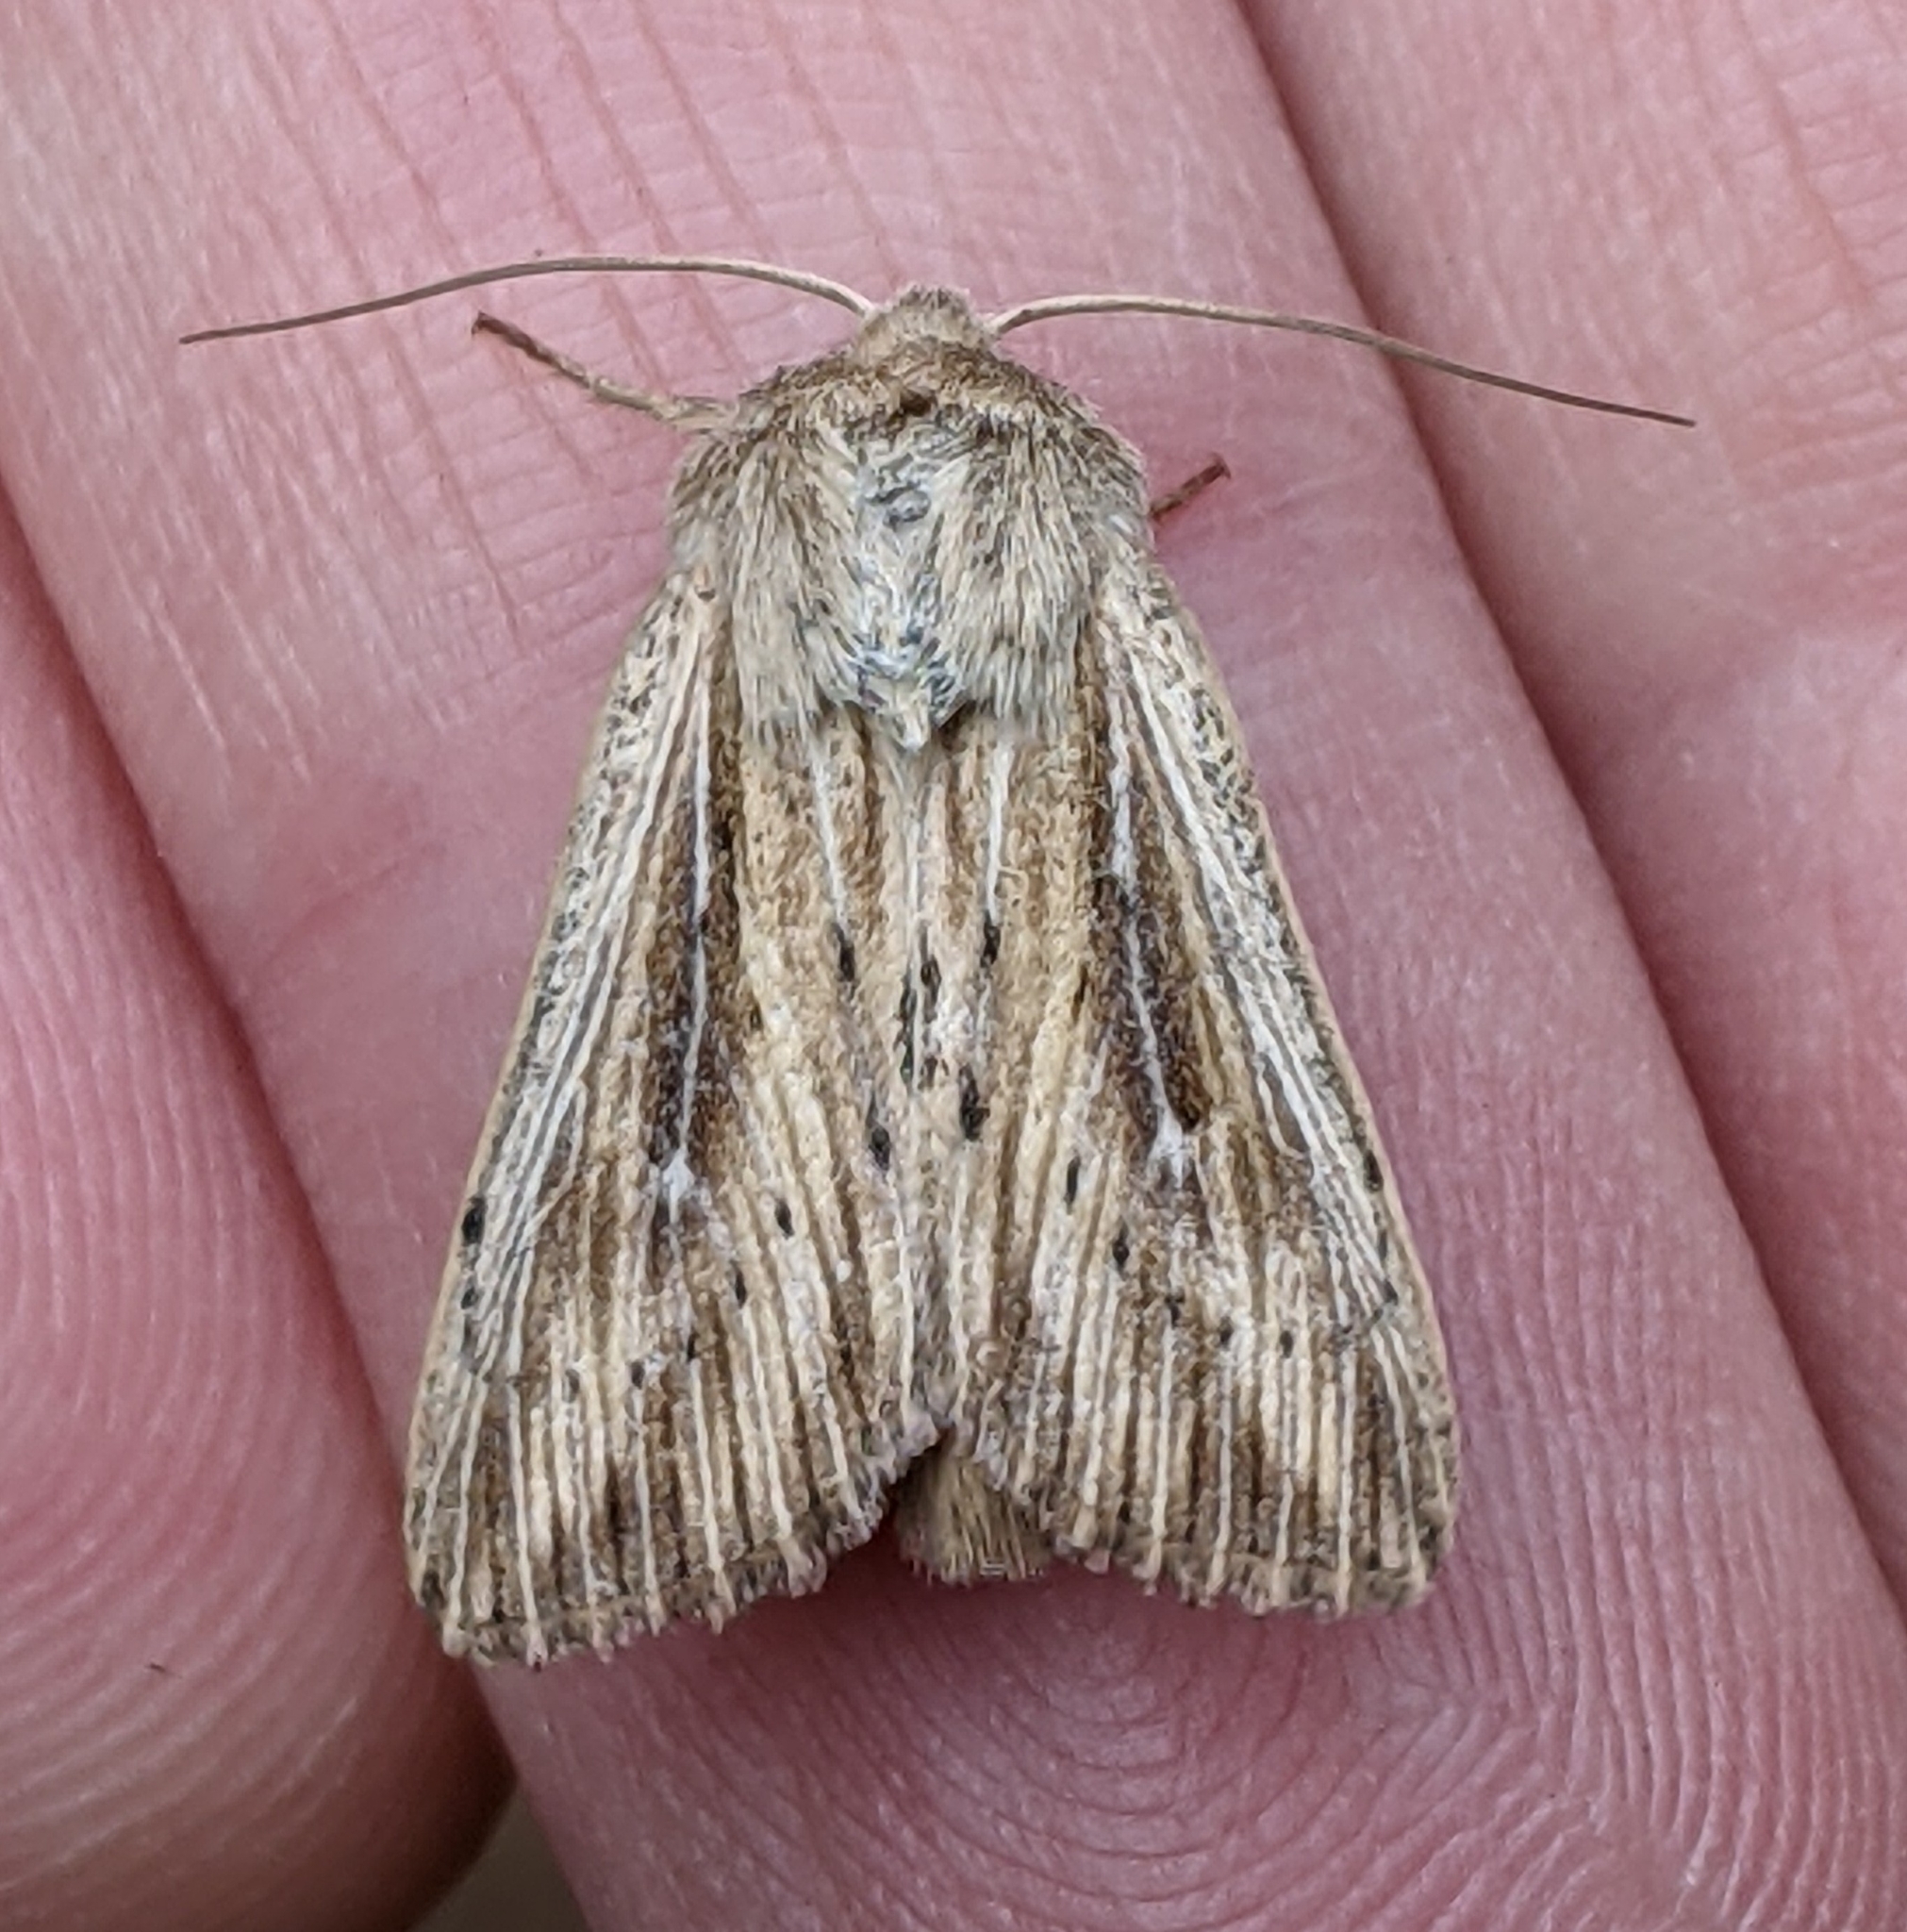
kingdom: Animalia
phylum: Arthropoda
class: Insecta
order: Lepidoptera
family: Noctuidae
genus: Leucania
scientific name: Leucania insueta
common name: Heterodox wainscot moth
